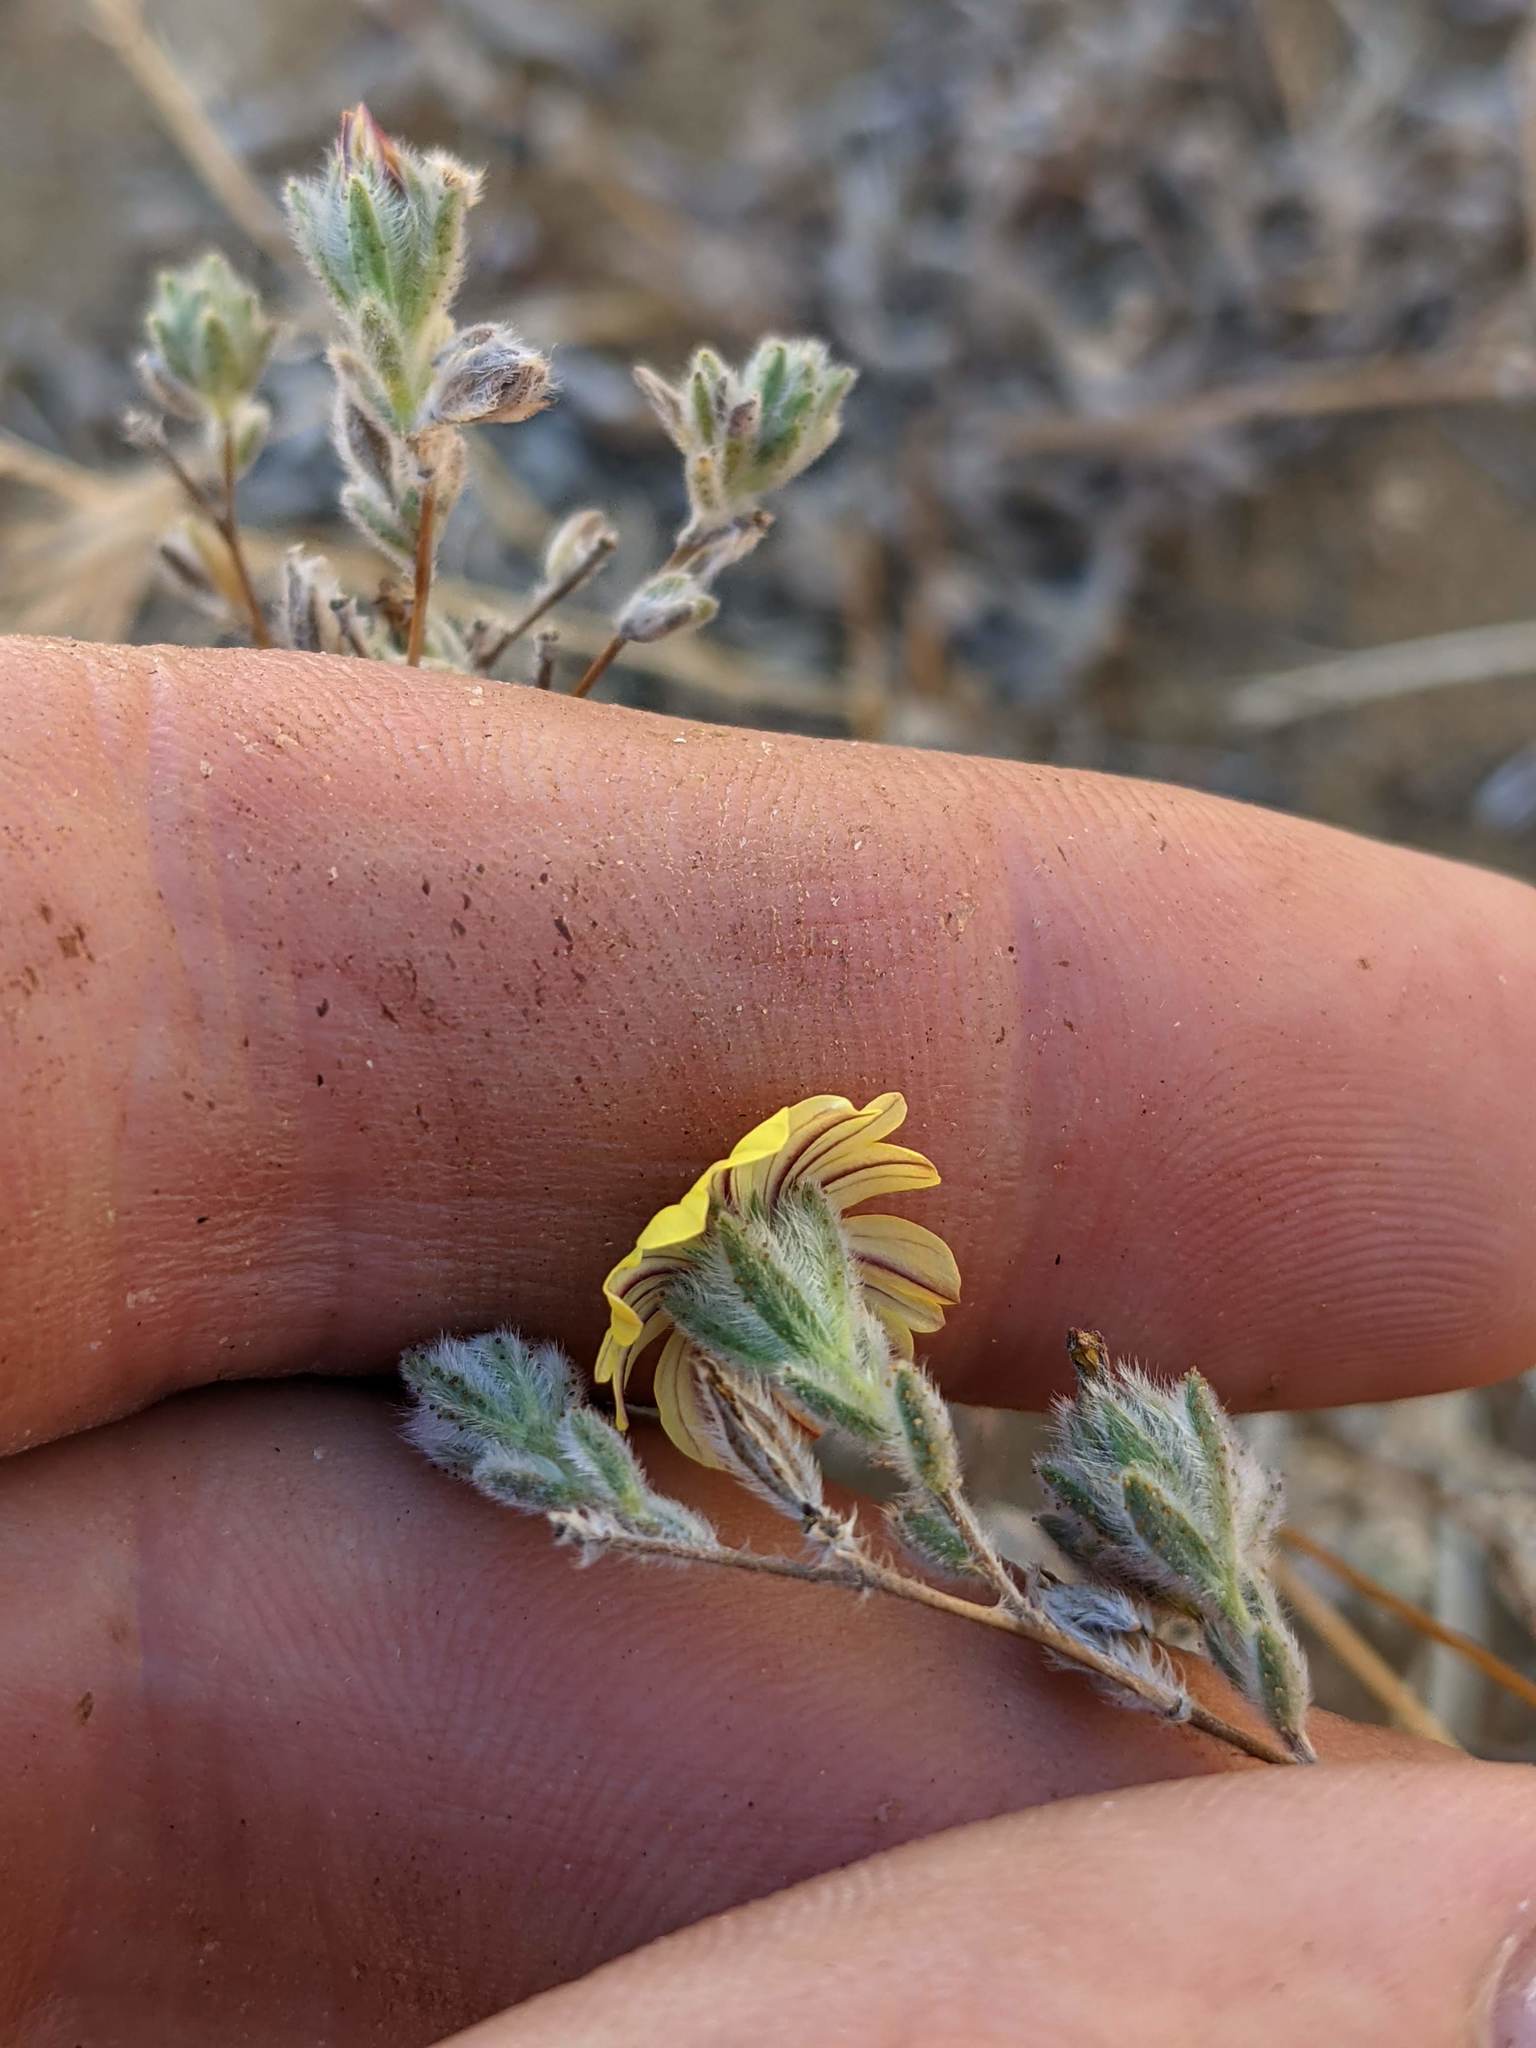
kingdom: Plantae
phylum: Tracheophyta
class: Magnoliopsida
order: Asterales
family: Asteraceae
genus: Lagophylla
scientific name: Lagophylla ramosissima
